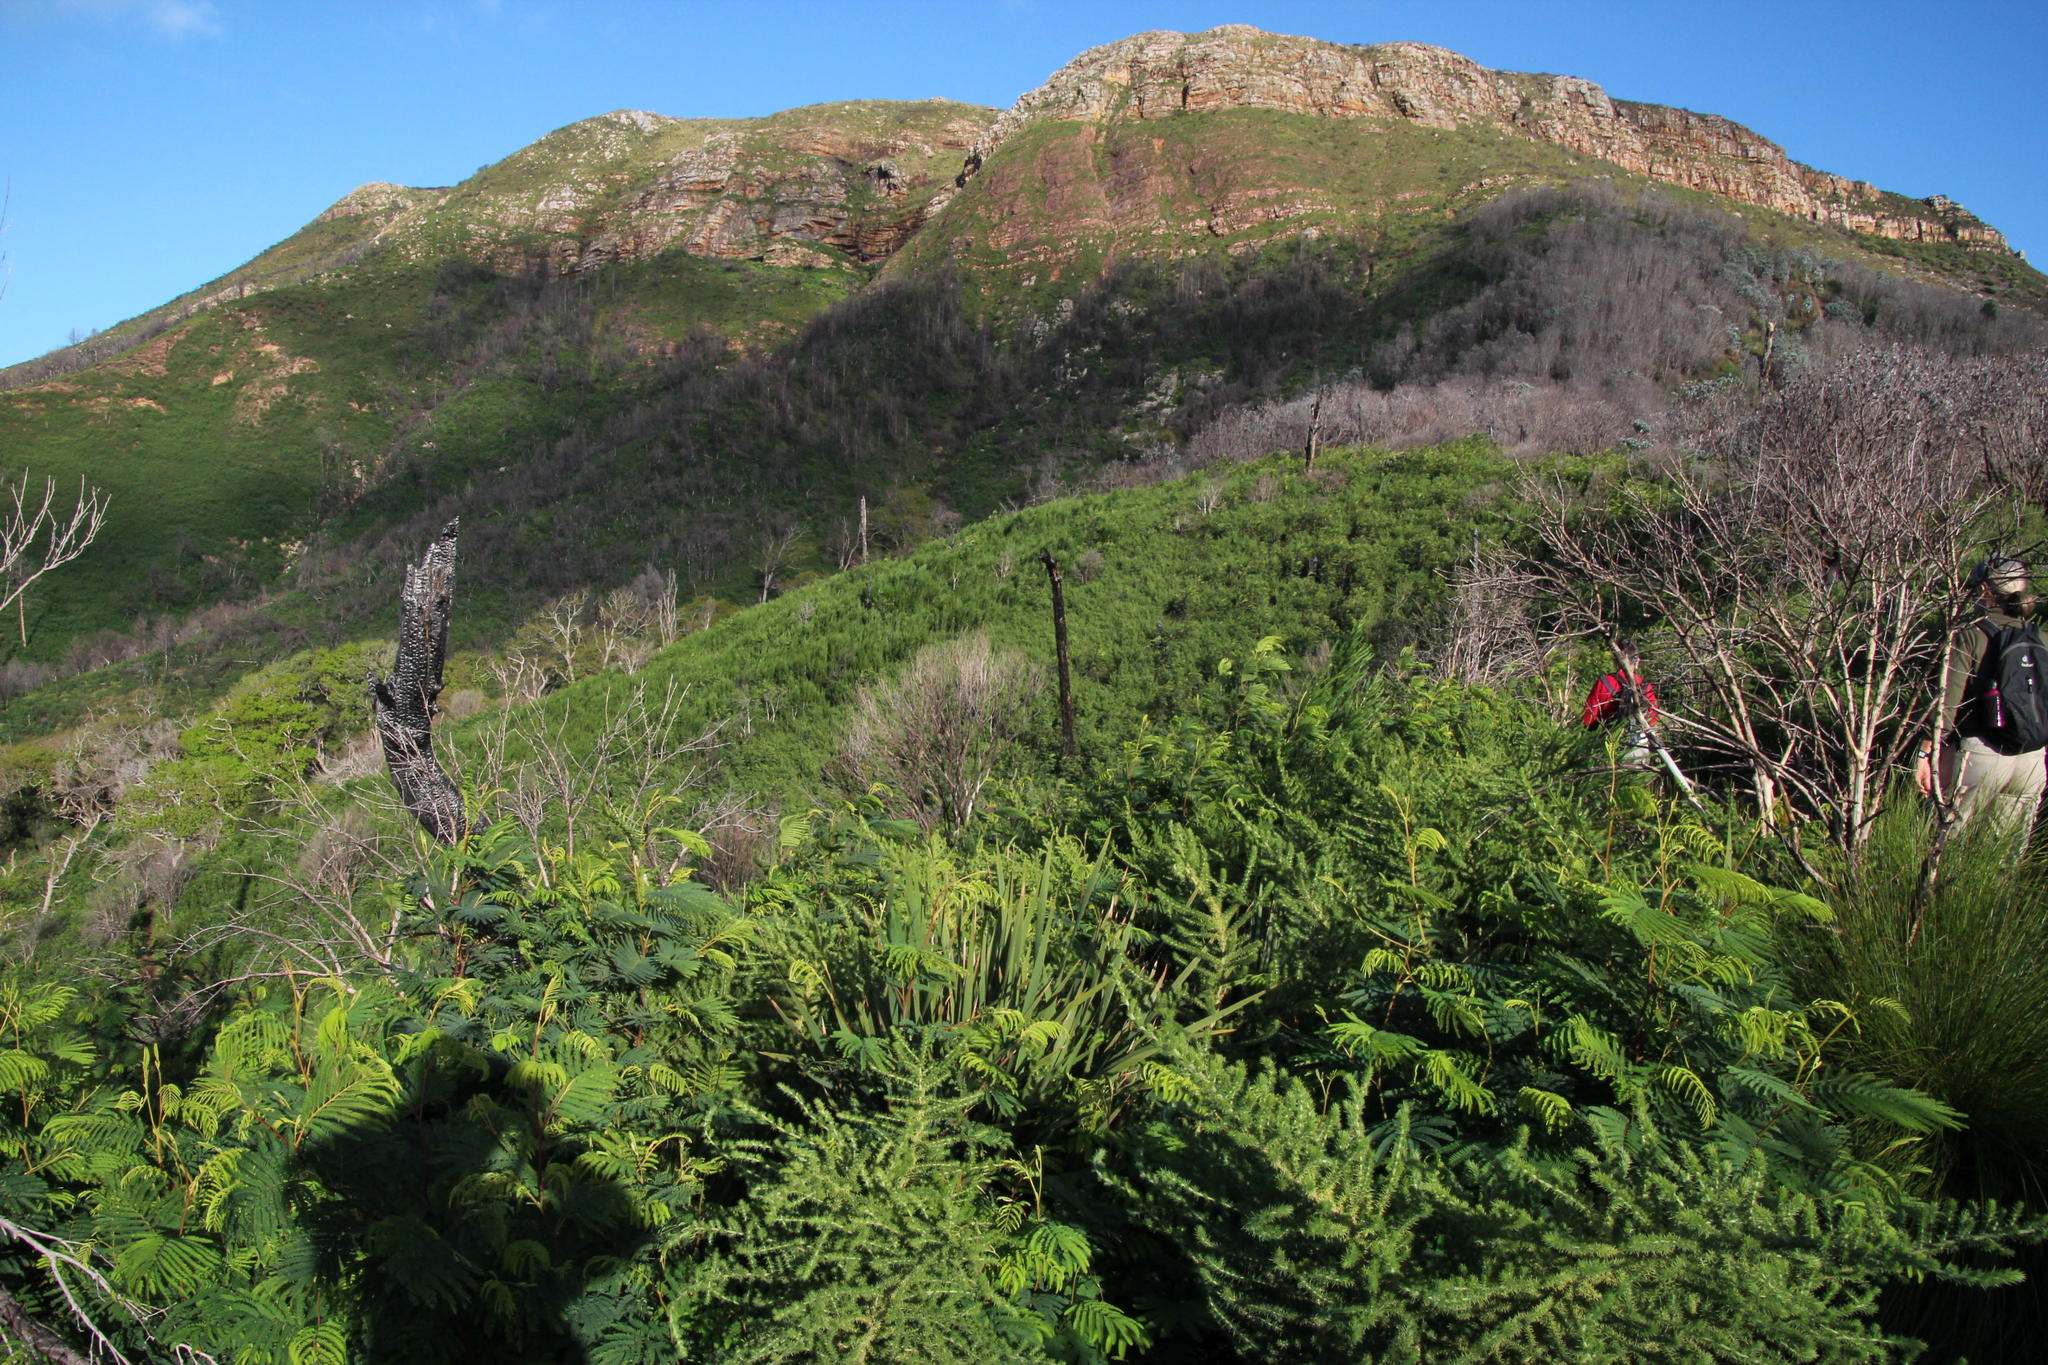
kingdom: Plantae
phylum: Tracheophyta
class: Magnoliopsida
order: Fabales
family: Fabaceae
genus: Paraserianthes
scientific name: Paraserianthes lophantha
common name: Plume albizia
